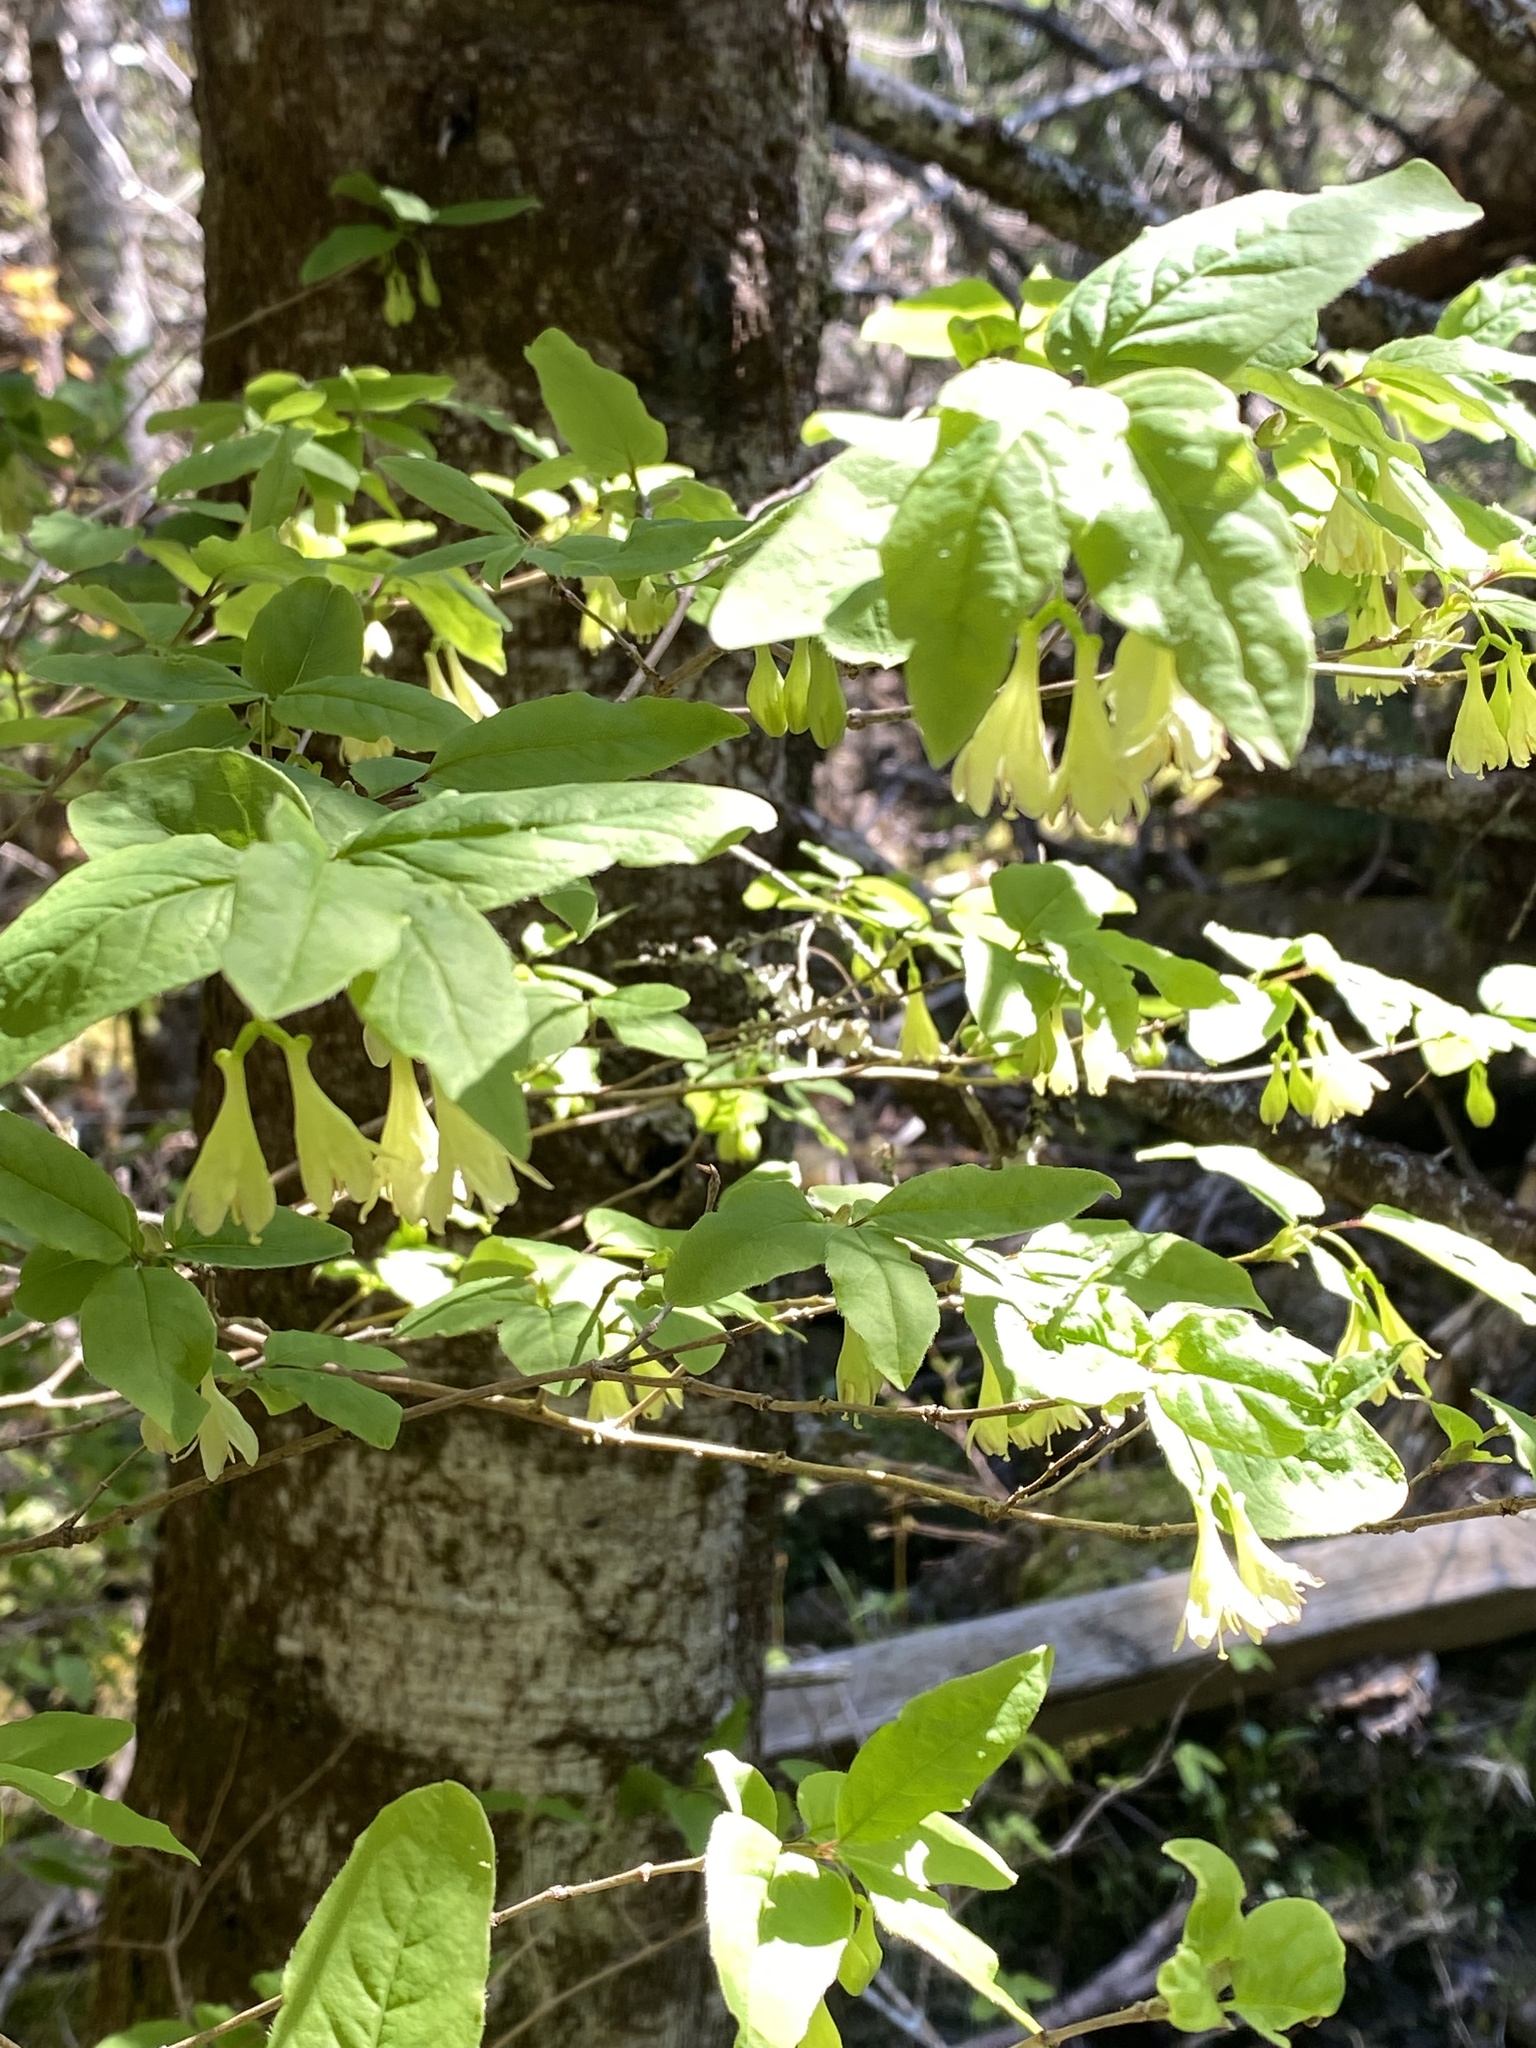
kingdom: Plantae
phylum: Tracheophyta
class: Magnoliopsida
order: Dipsacales
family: Caprifoliaceae
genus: Lonicera
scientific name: Lonicera canadensis
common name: American fly-honeysuckle
